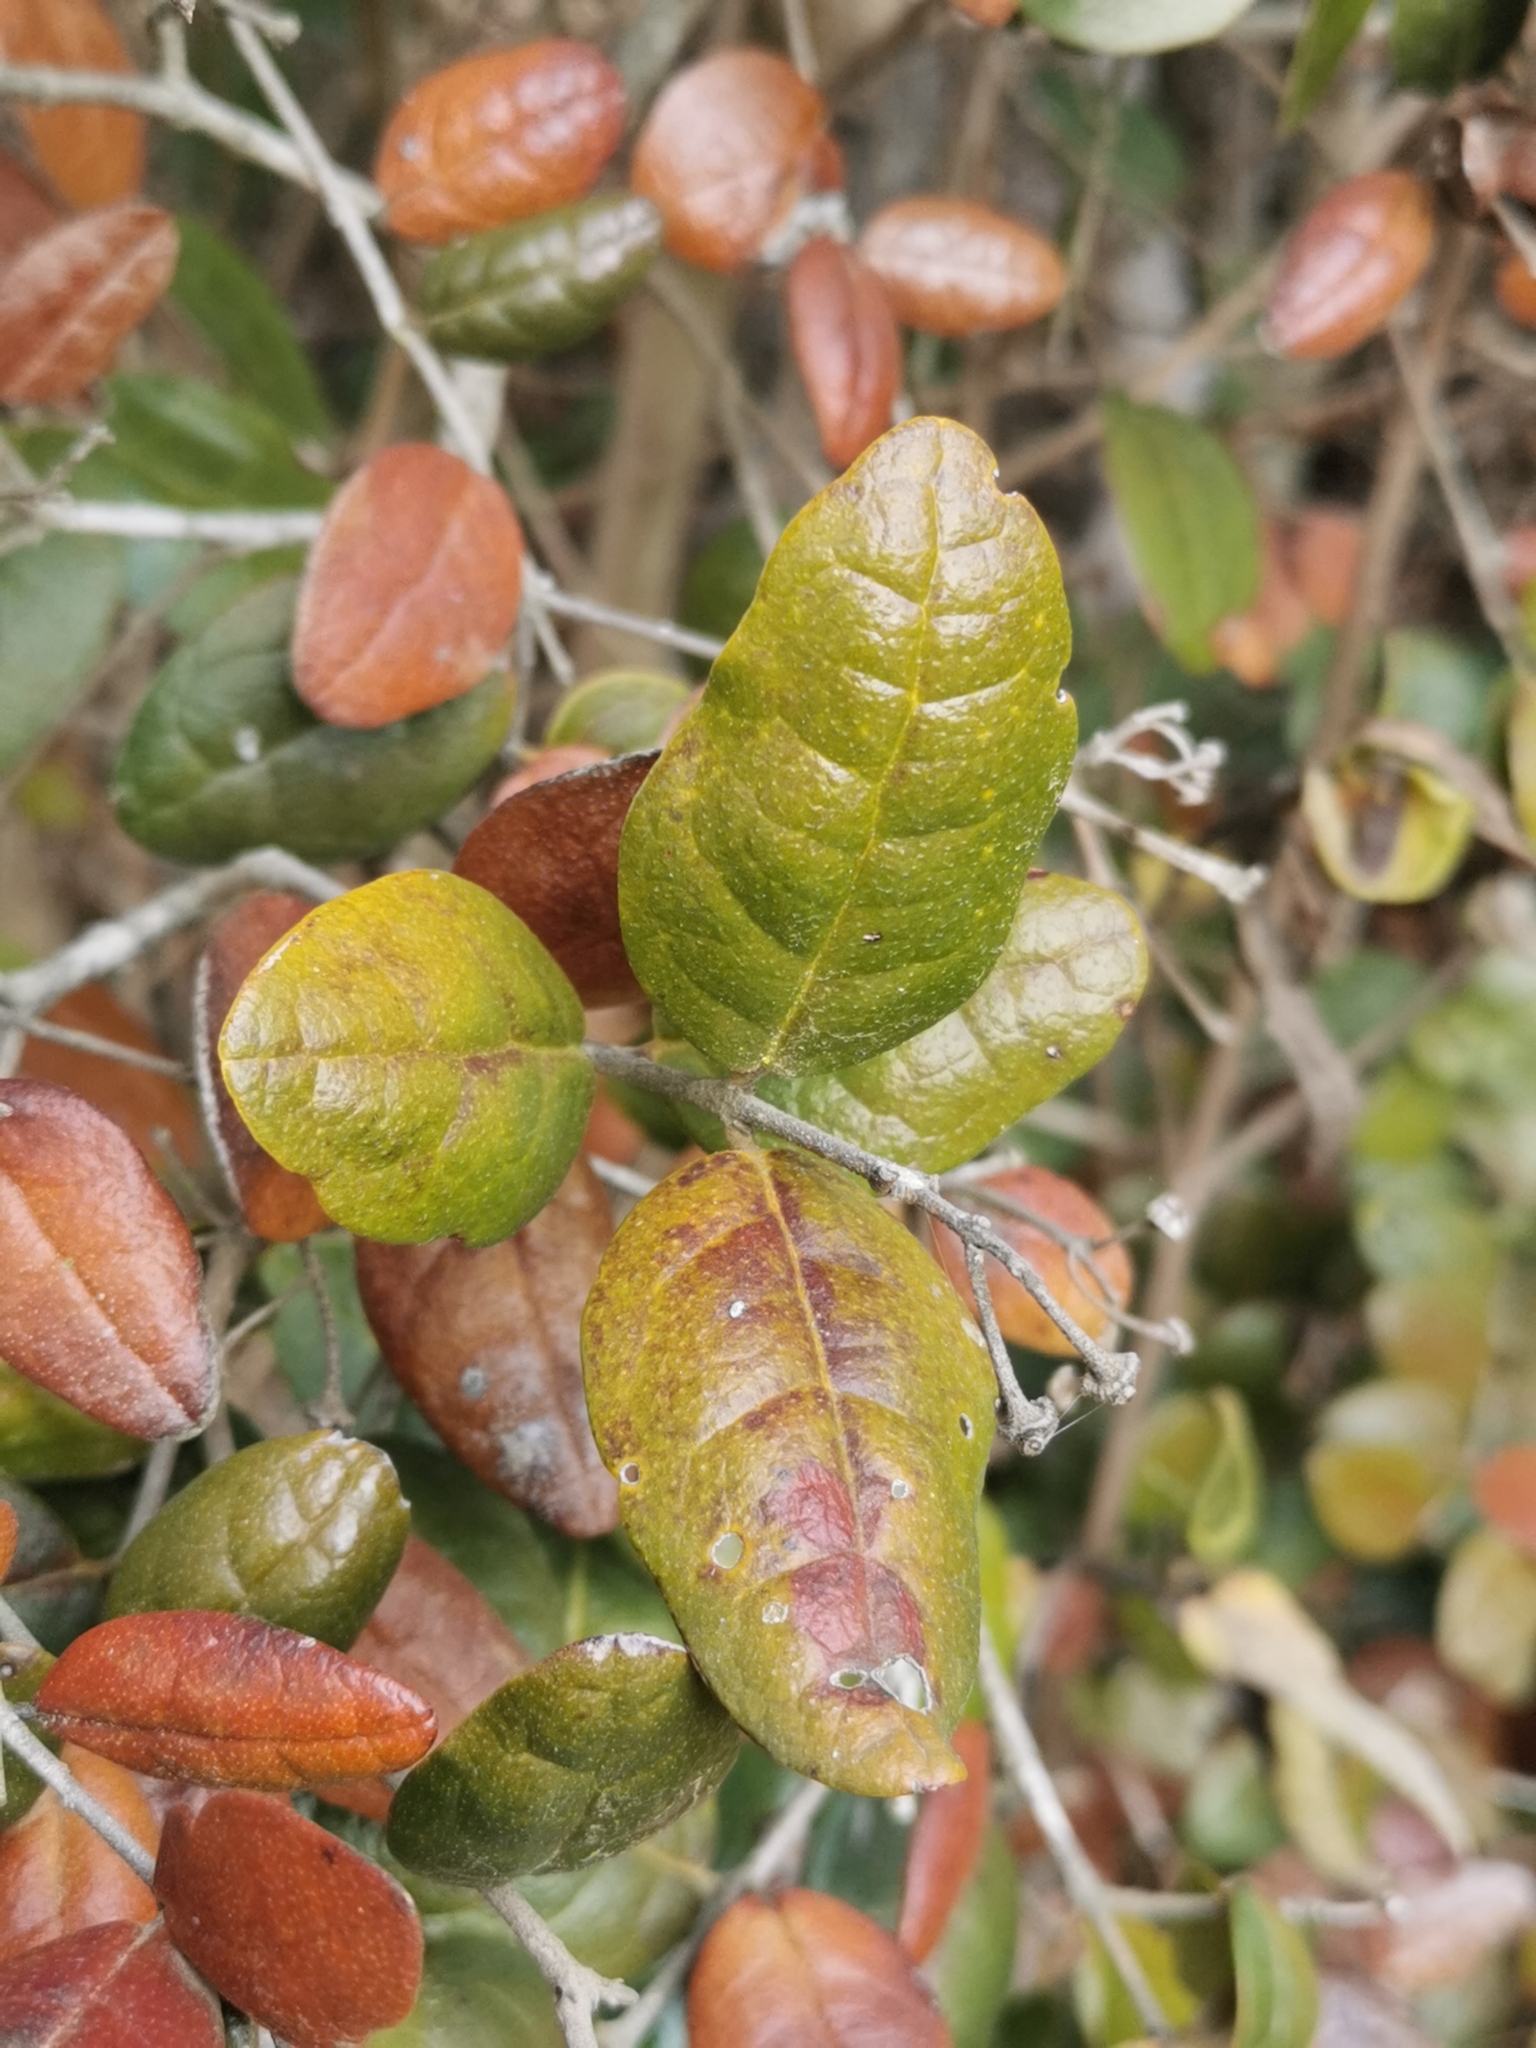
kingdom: Plantae
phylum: Tracheophyta
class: Magnoliopsida
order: Laurales
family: Monimiaceae
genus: Peumus
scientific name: Peumus boldus
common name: Boldo
